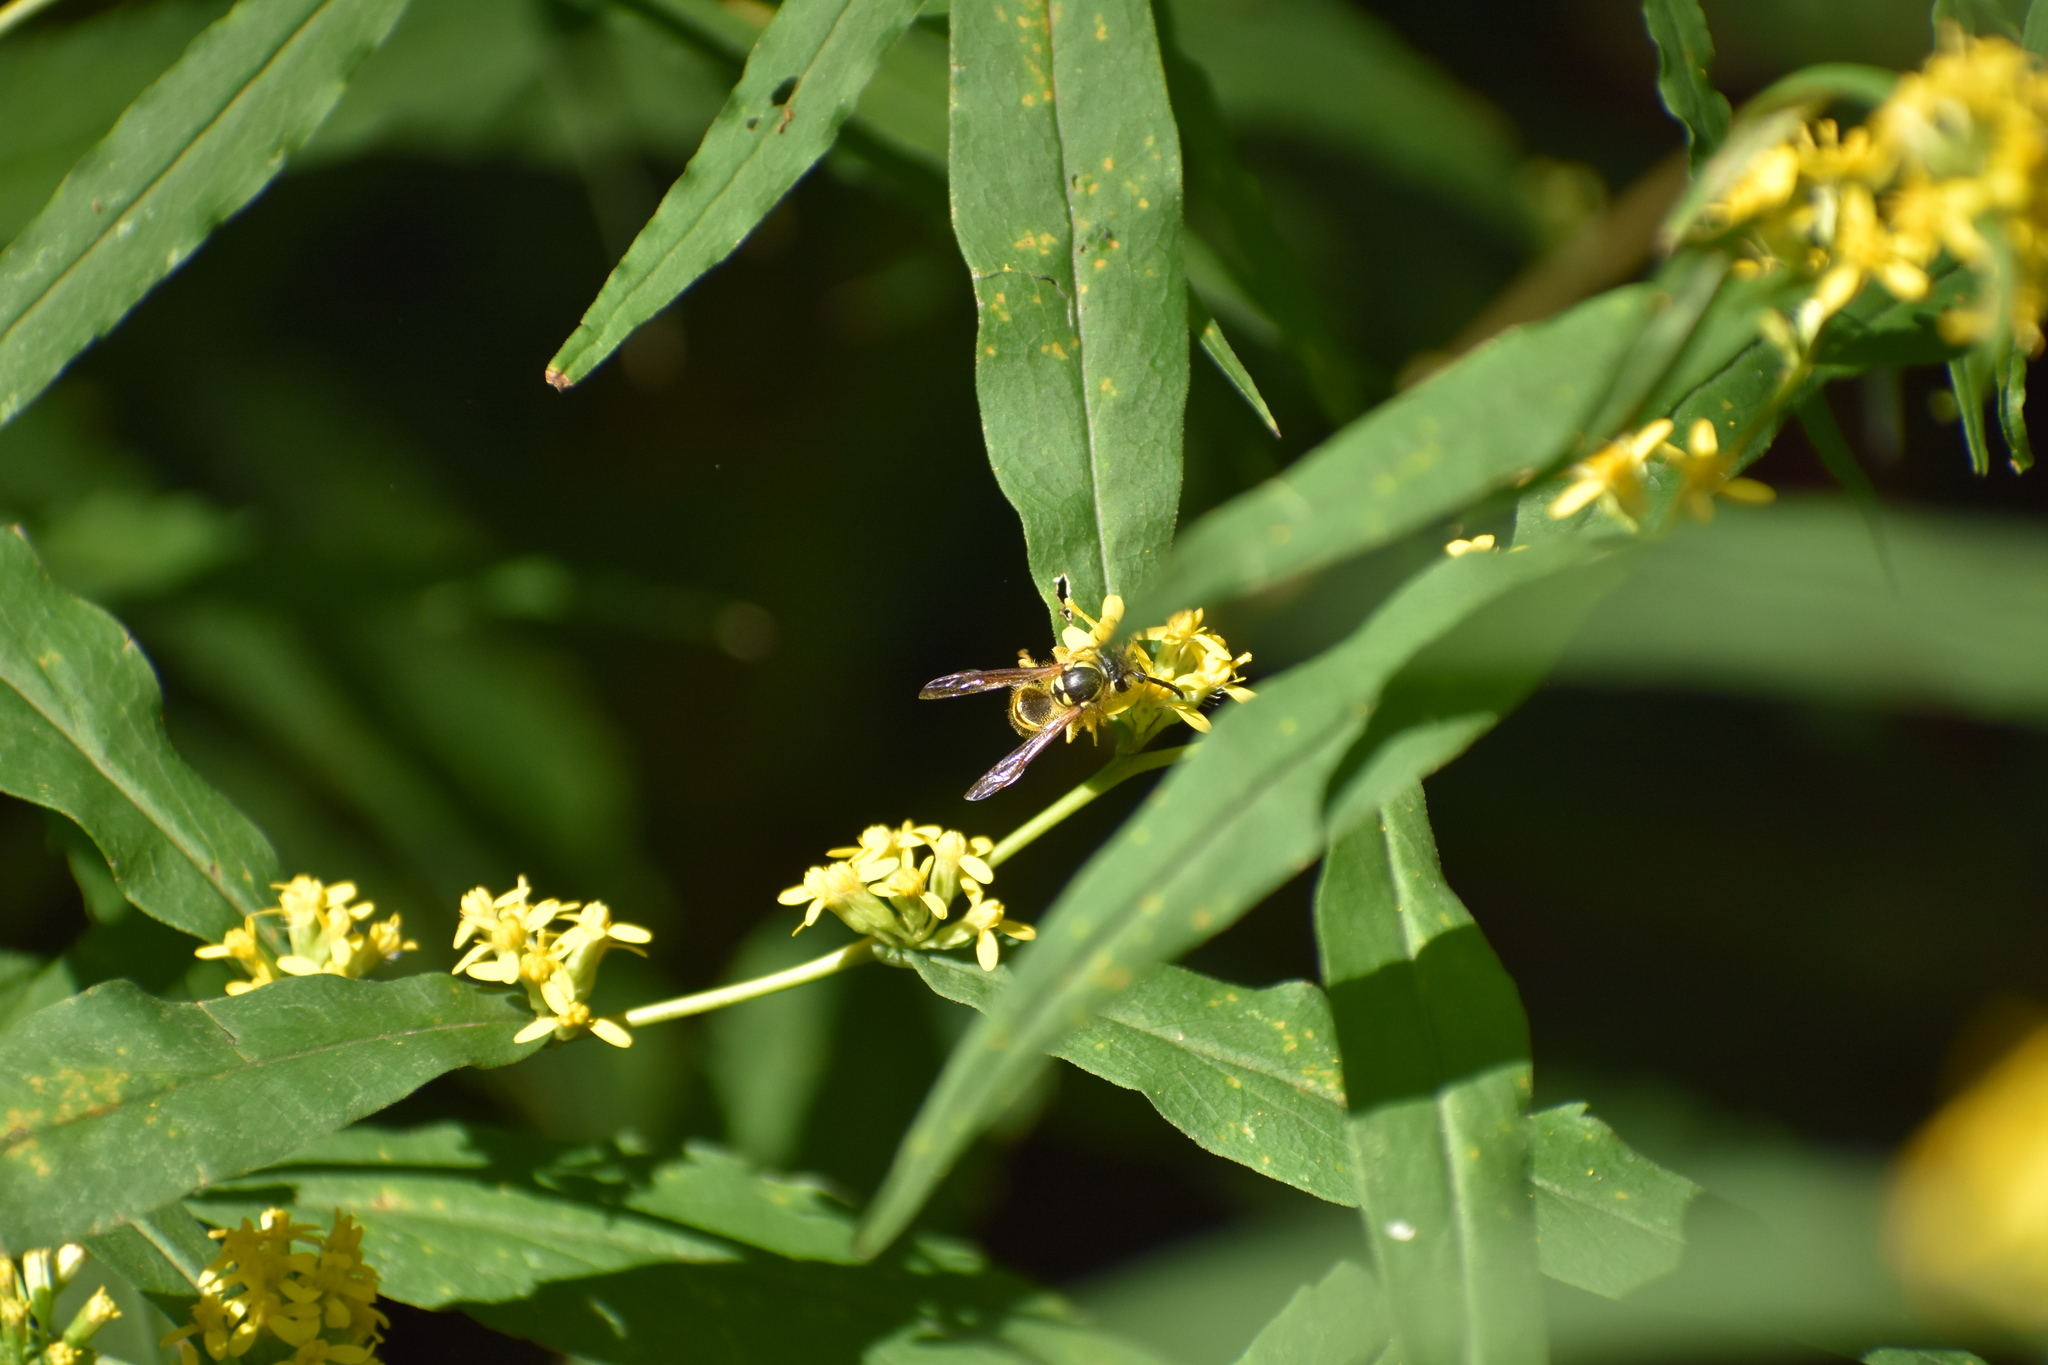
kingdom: Animalia
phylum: Arthropoda
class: Insecta
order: Hymenoptera
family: Vespidae
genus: Vespula
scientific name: Vespula maculifrons
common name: Eastern yellowjacket
